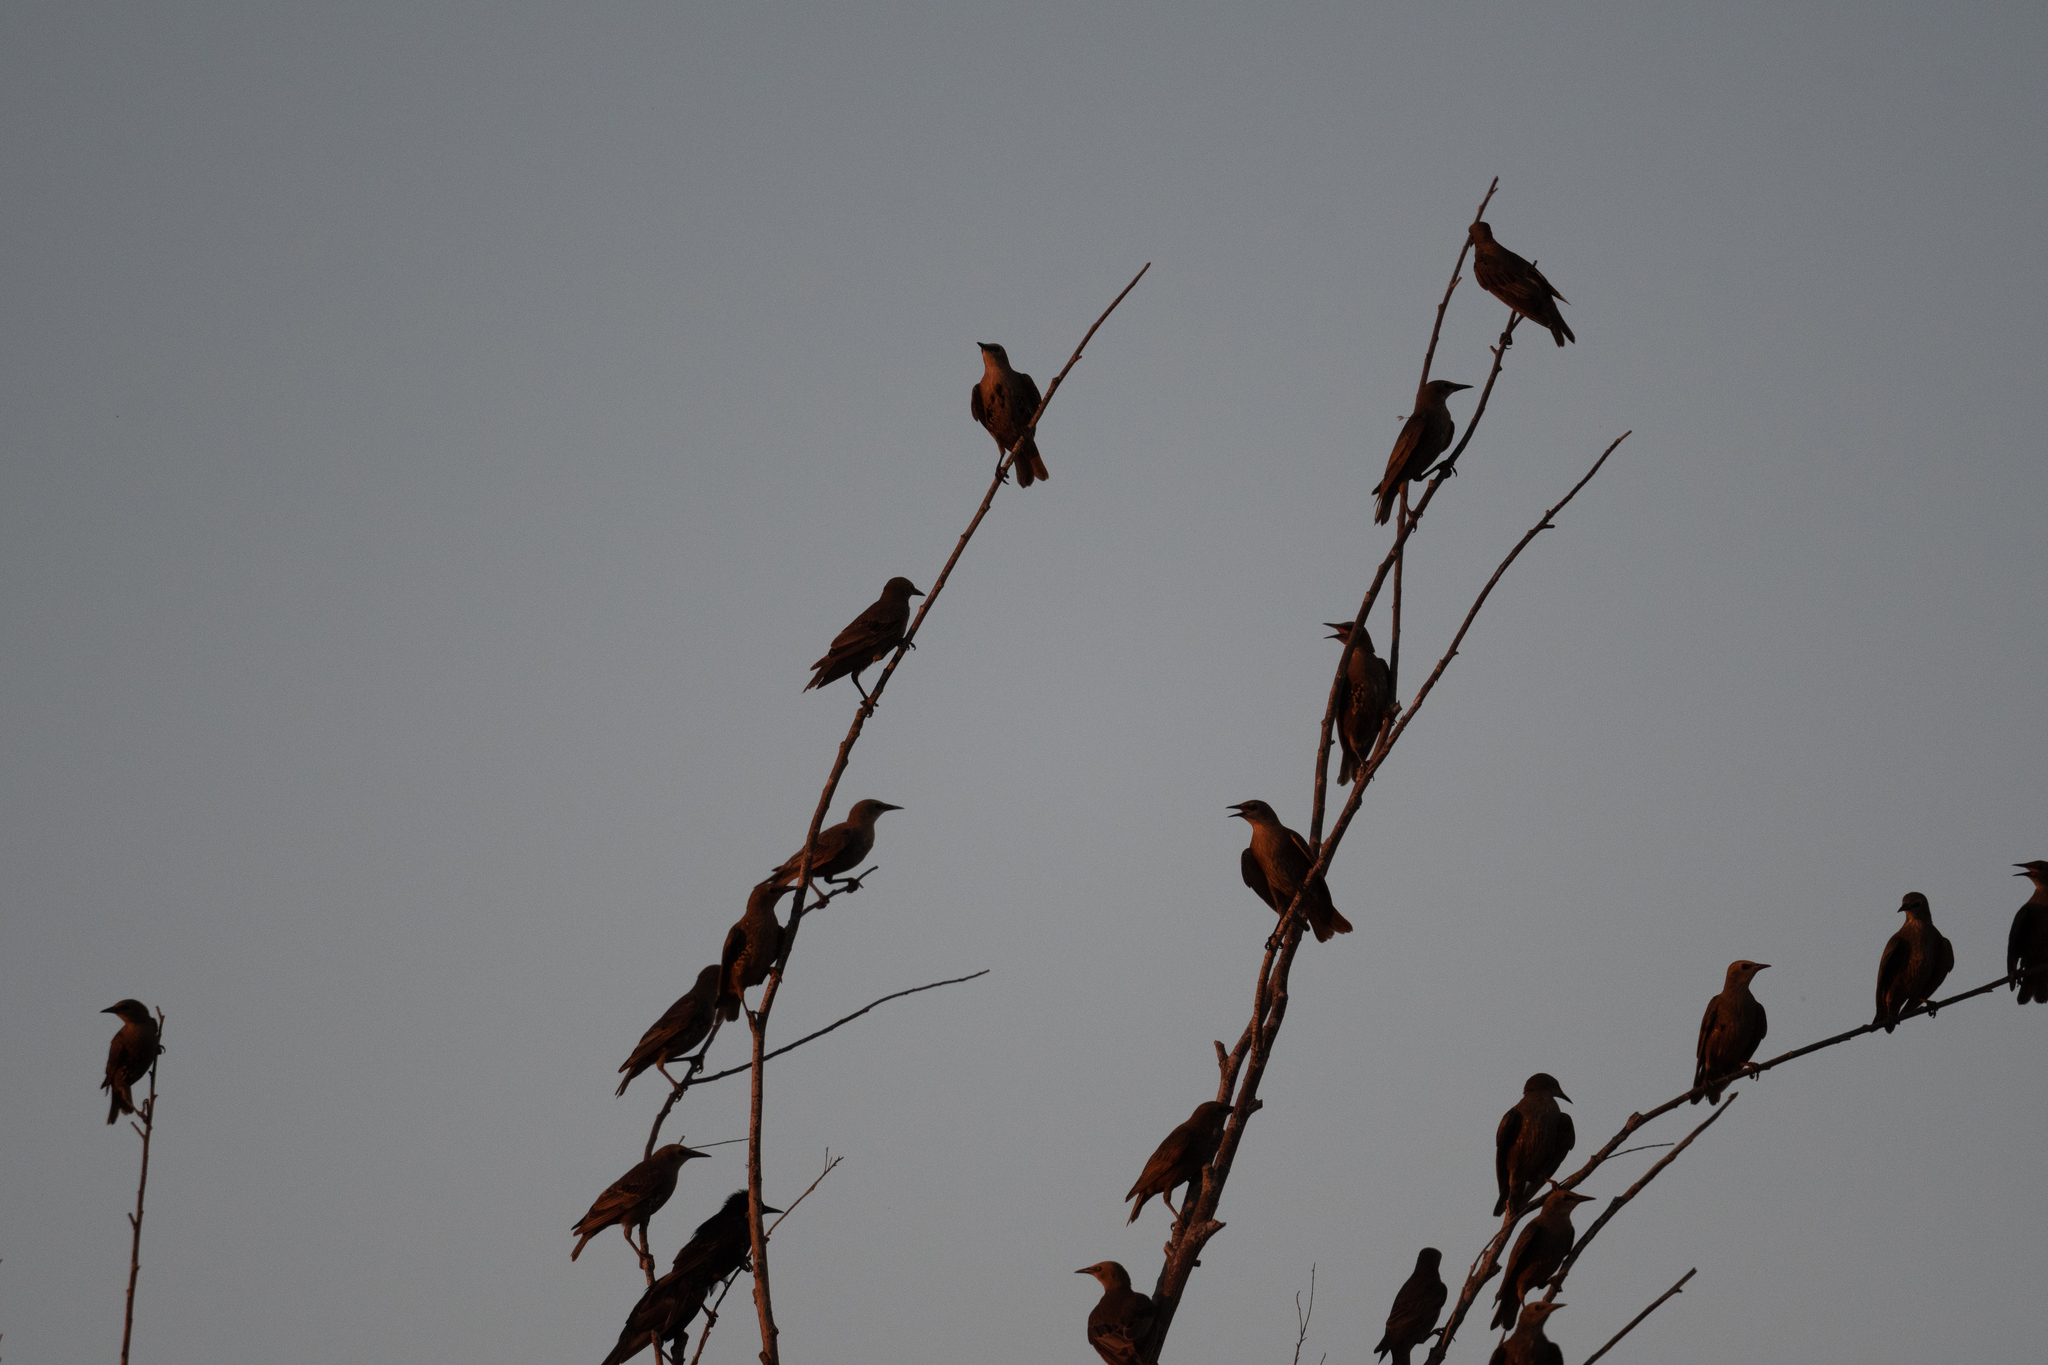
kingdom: Animalia
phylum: Chordata
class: Aves
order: Passeriformes
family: Sturnidae
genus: Sturnus
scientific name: Sturnus vulgaris
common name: Common starling
